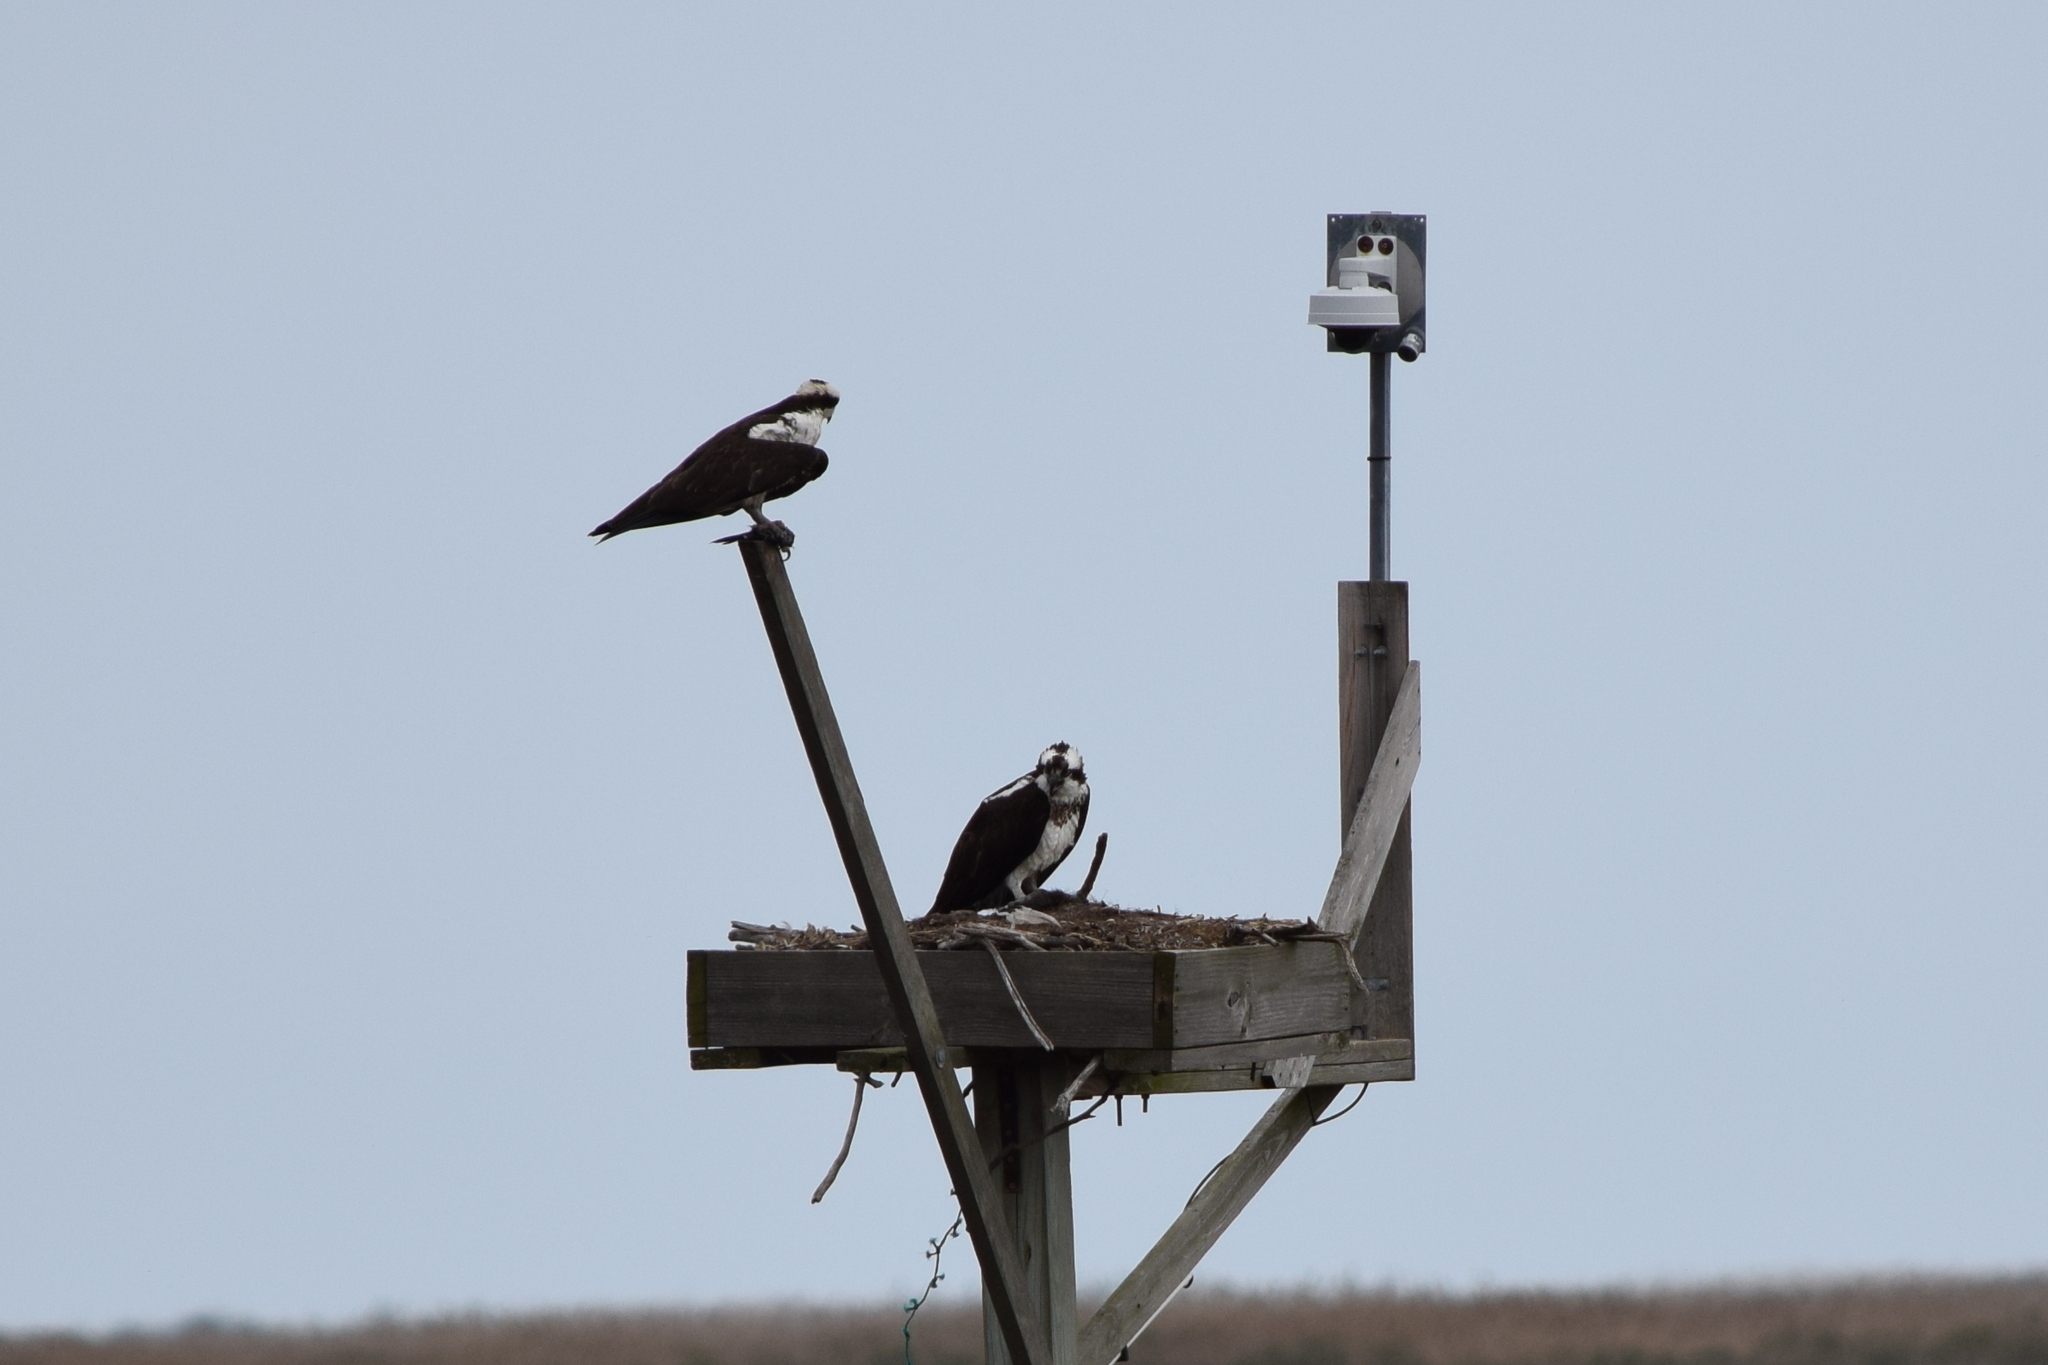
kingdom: Animalia
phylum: Chordata
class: Aves
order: Accipitriformes
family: Pandionidae
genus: Pandion
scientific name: Pandion haliaetus
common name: Osprey
